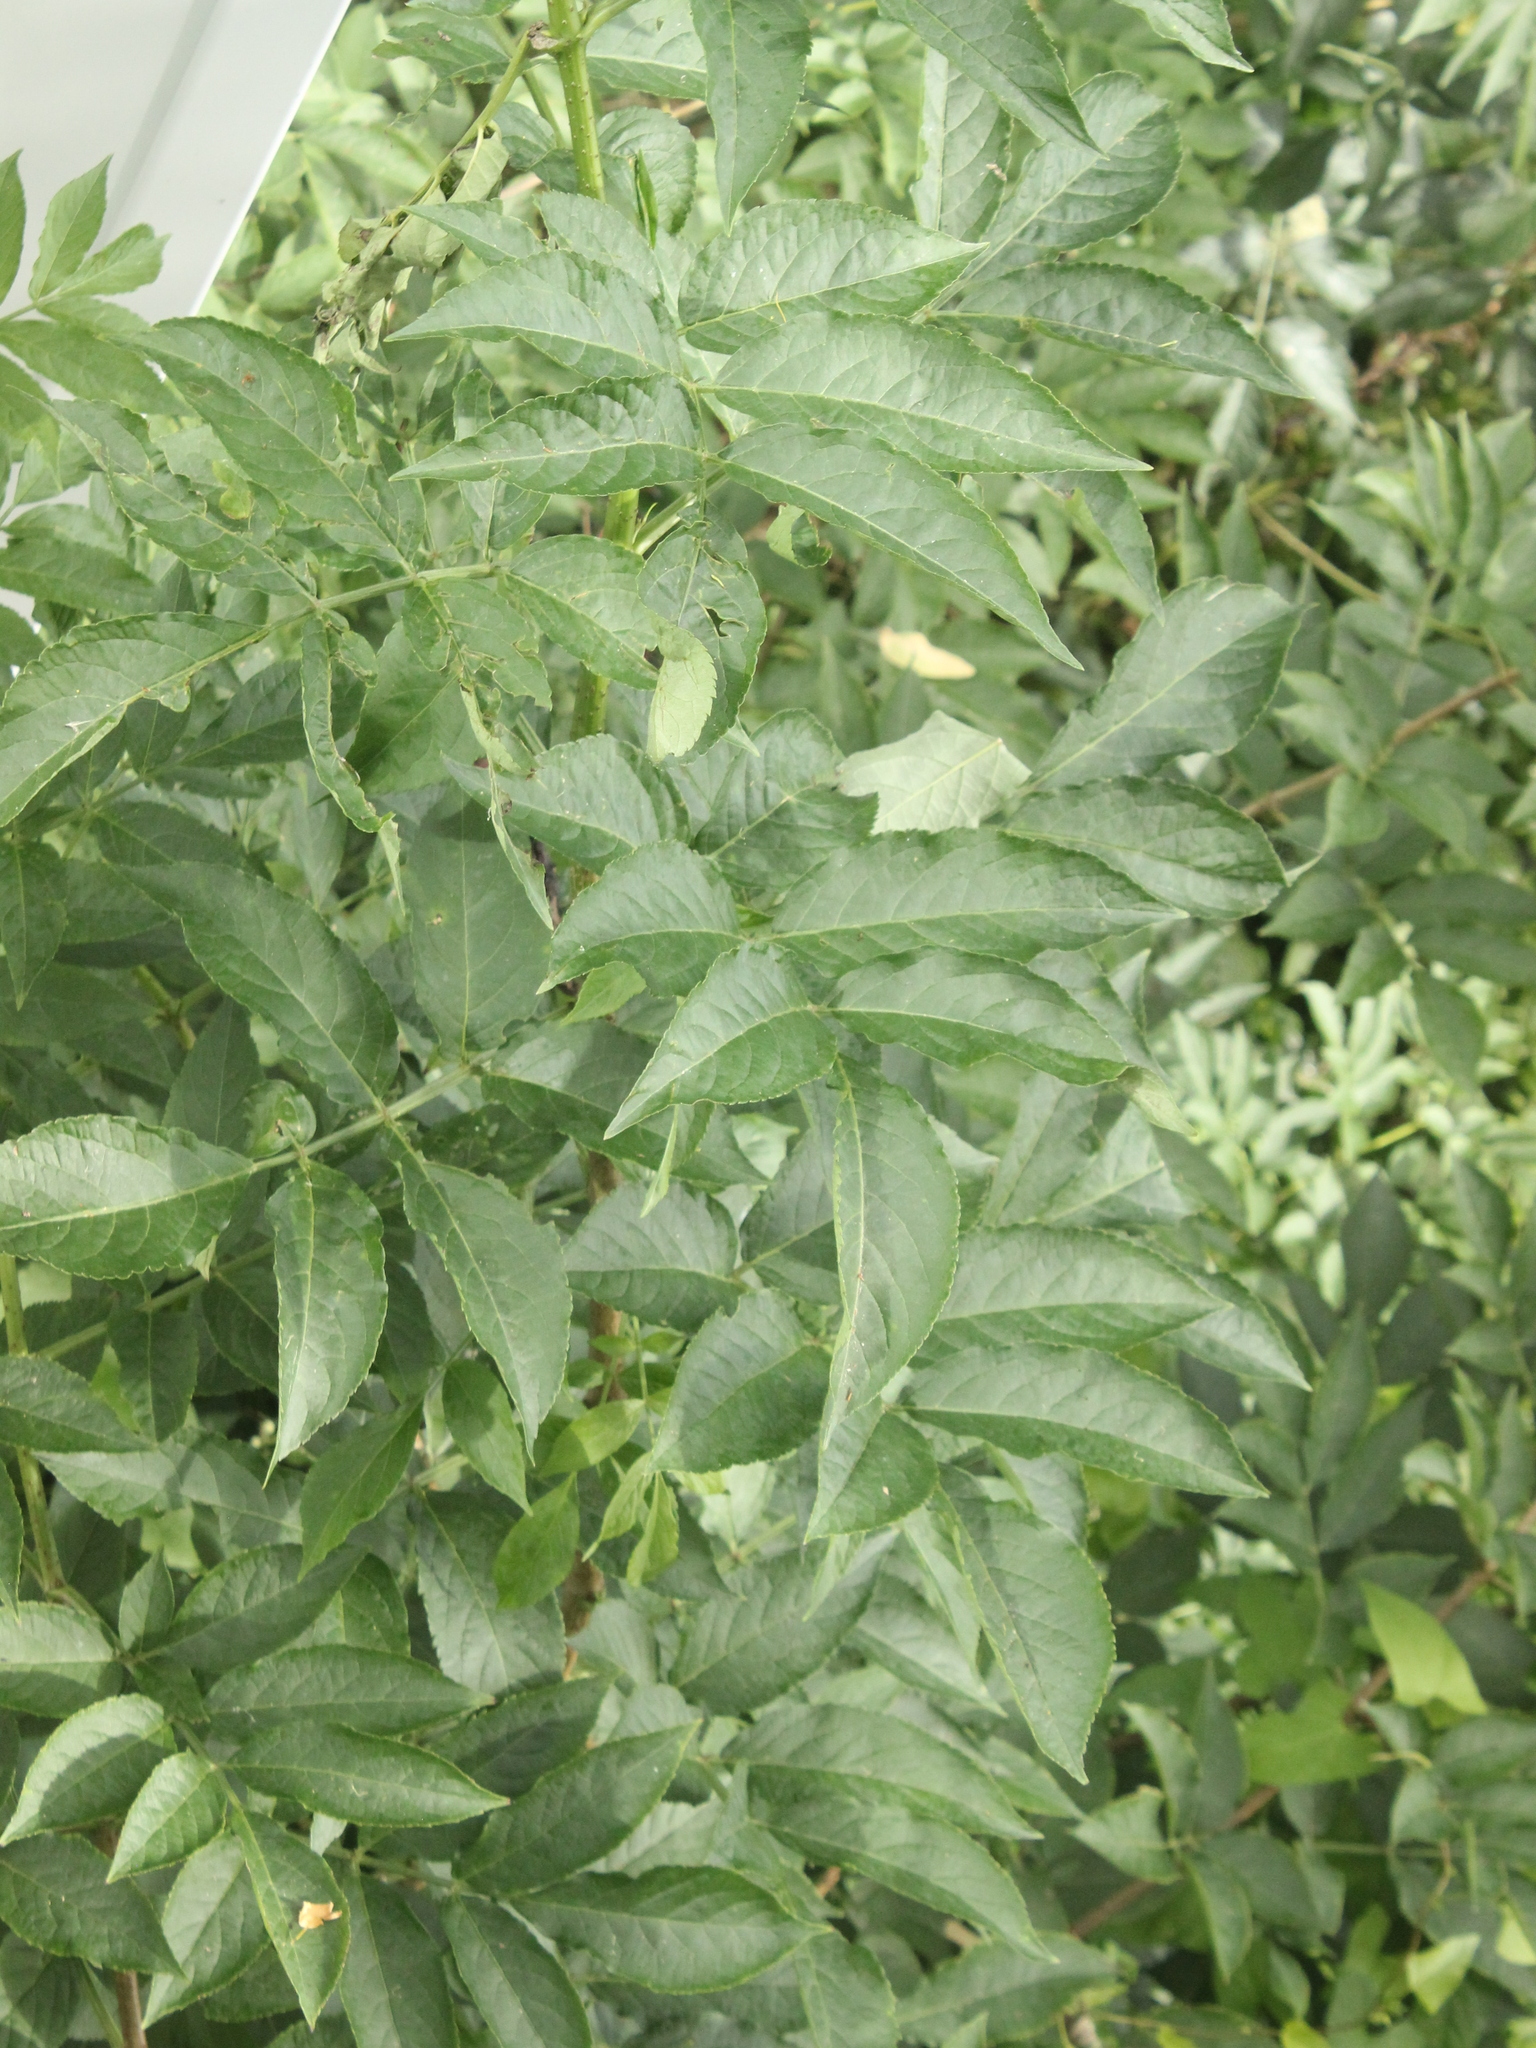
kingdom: Plantae
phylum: Tracheophyta
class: Magnoliopsida
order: Dipsacales
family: Viburnaceae
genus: Sambucus
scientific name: Sambucus nigra
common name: Elder
